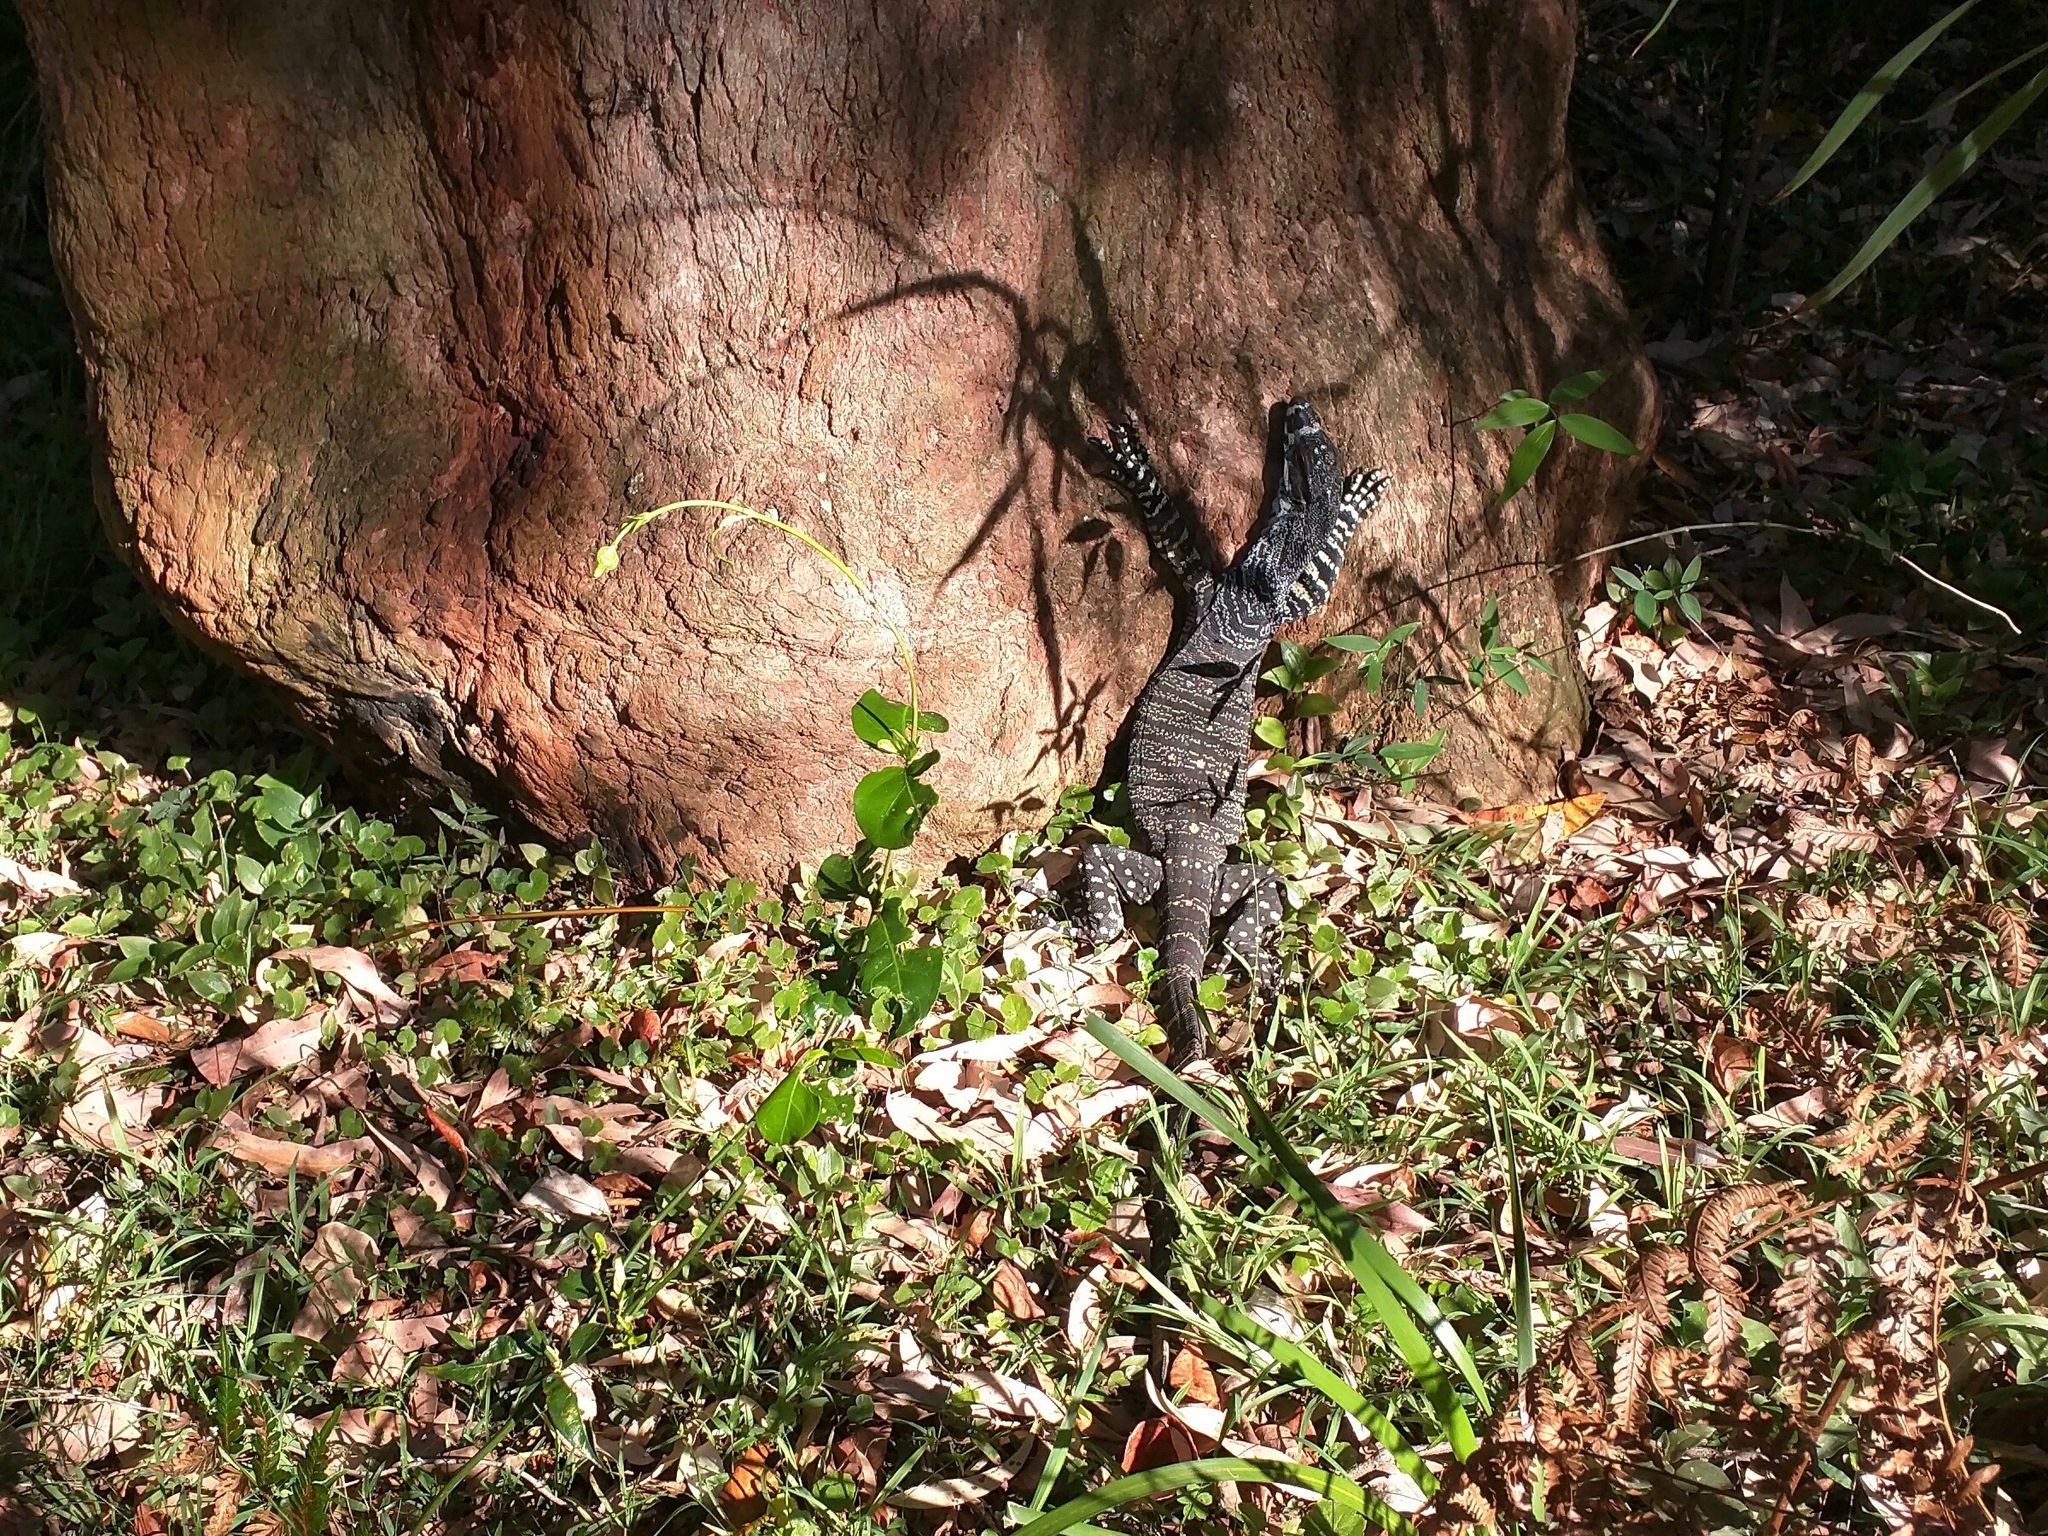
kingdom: Animalia
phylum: Chordata
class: Squamata
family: Varanidae
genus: Varanus
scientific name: Varanus varius
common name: Lace monitor
